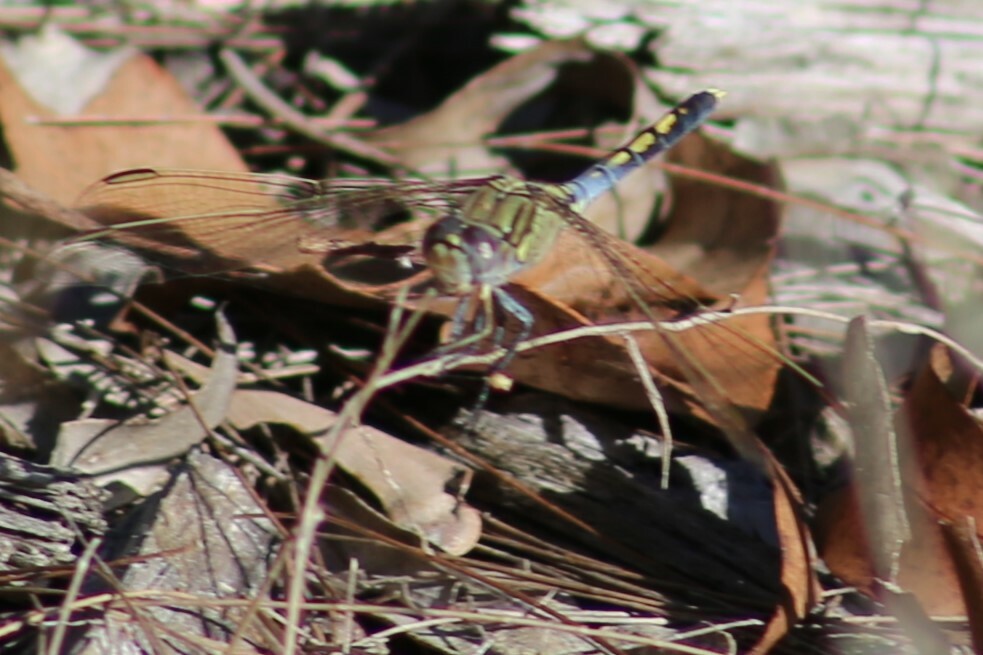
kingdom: Animalia
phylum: Arthropoda
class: Insecta
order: Odonata
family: Libellulidae
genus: Orthetrum
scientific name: Orthetrum caledonicum
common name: Blue skimmer
